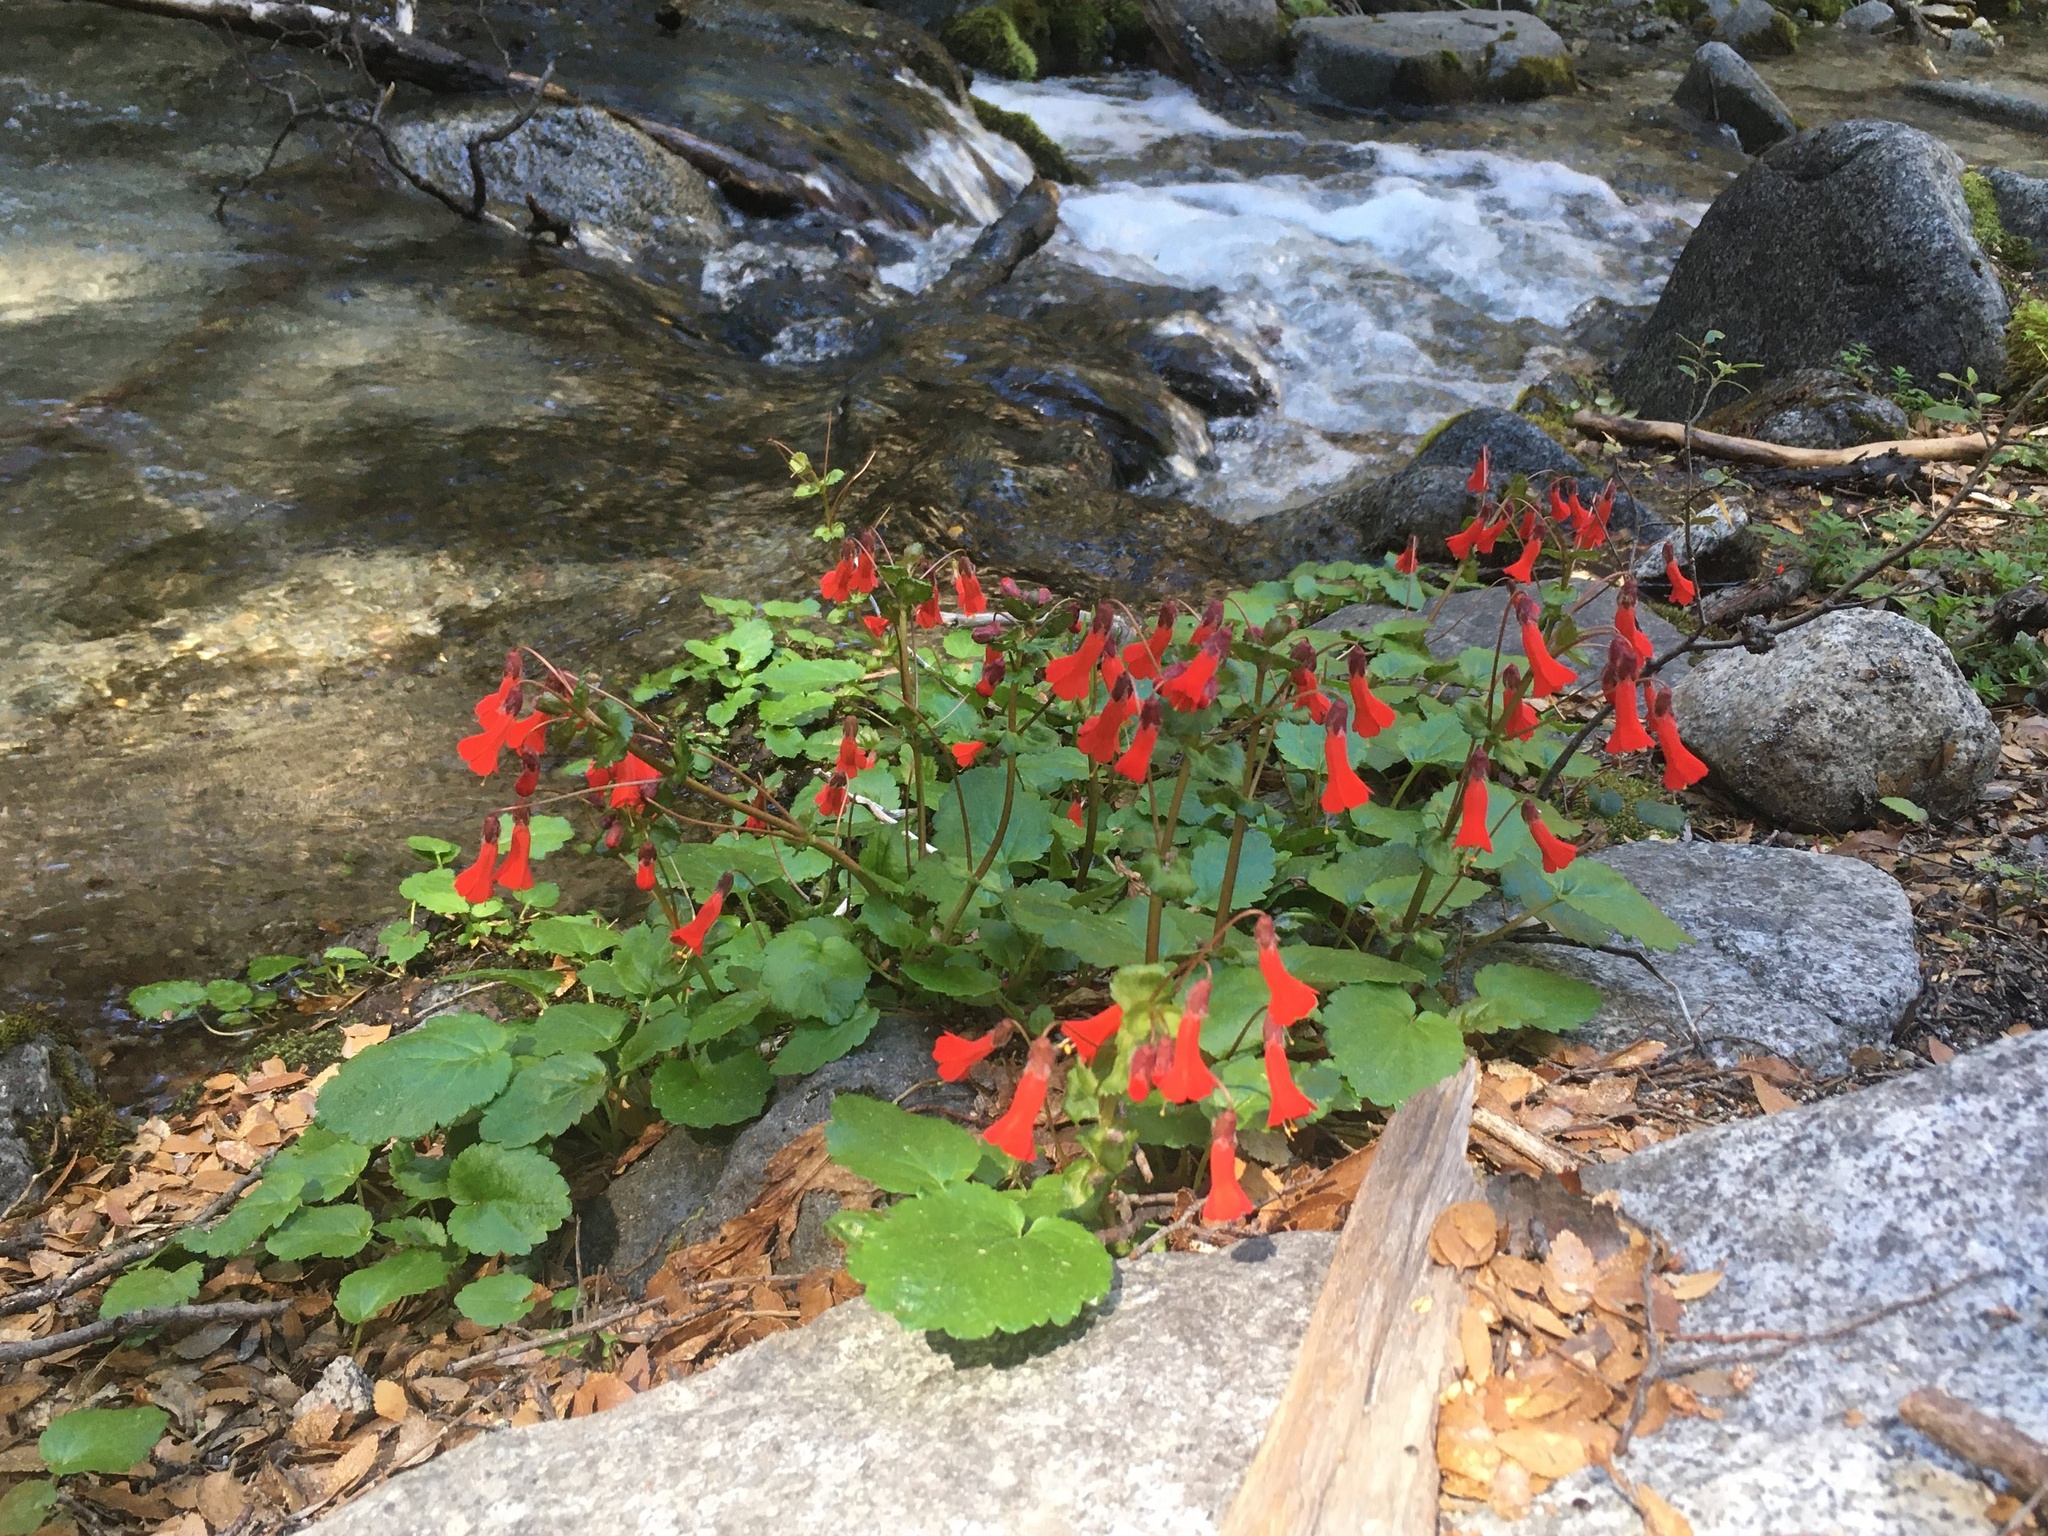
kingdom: Plantae
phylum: Tracheophyta
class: Magnoliopsida
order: Lamiales
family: Plantaginaceae
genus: Ourisia
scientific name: Ourisia ruellioides
